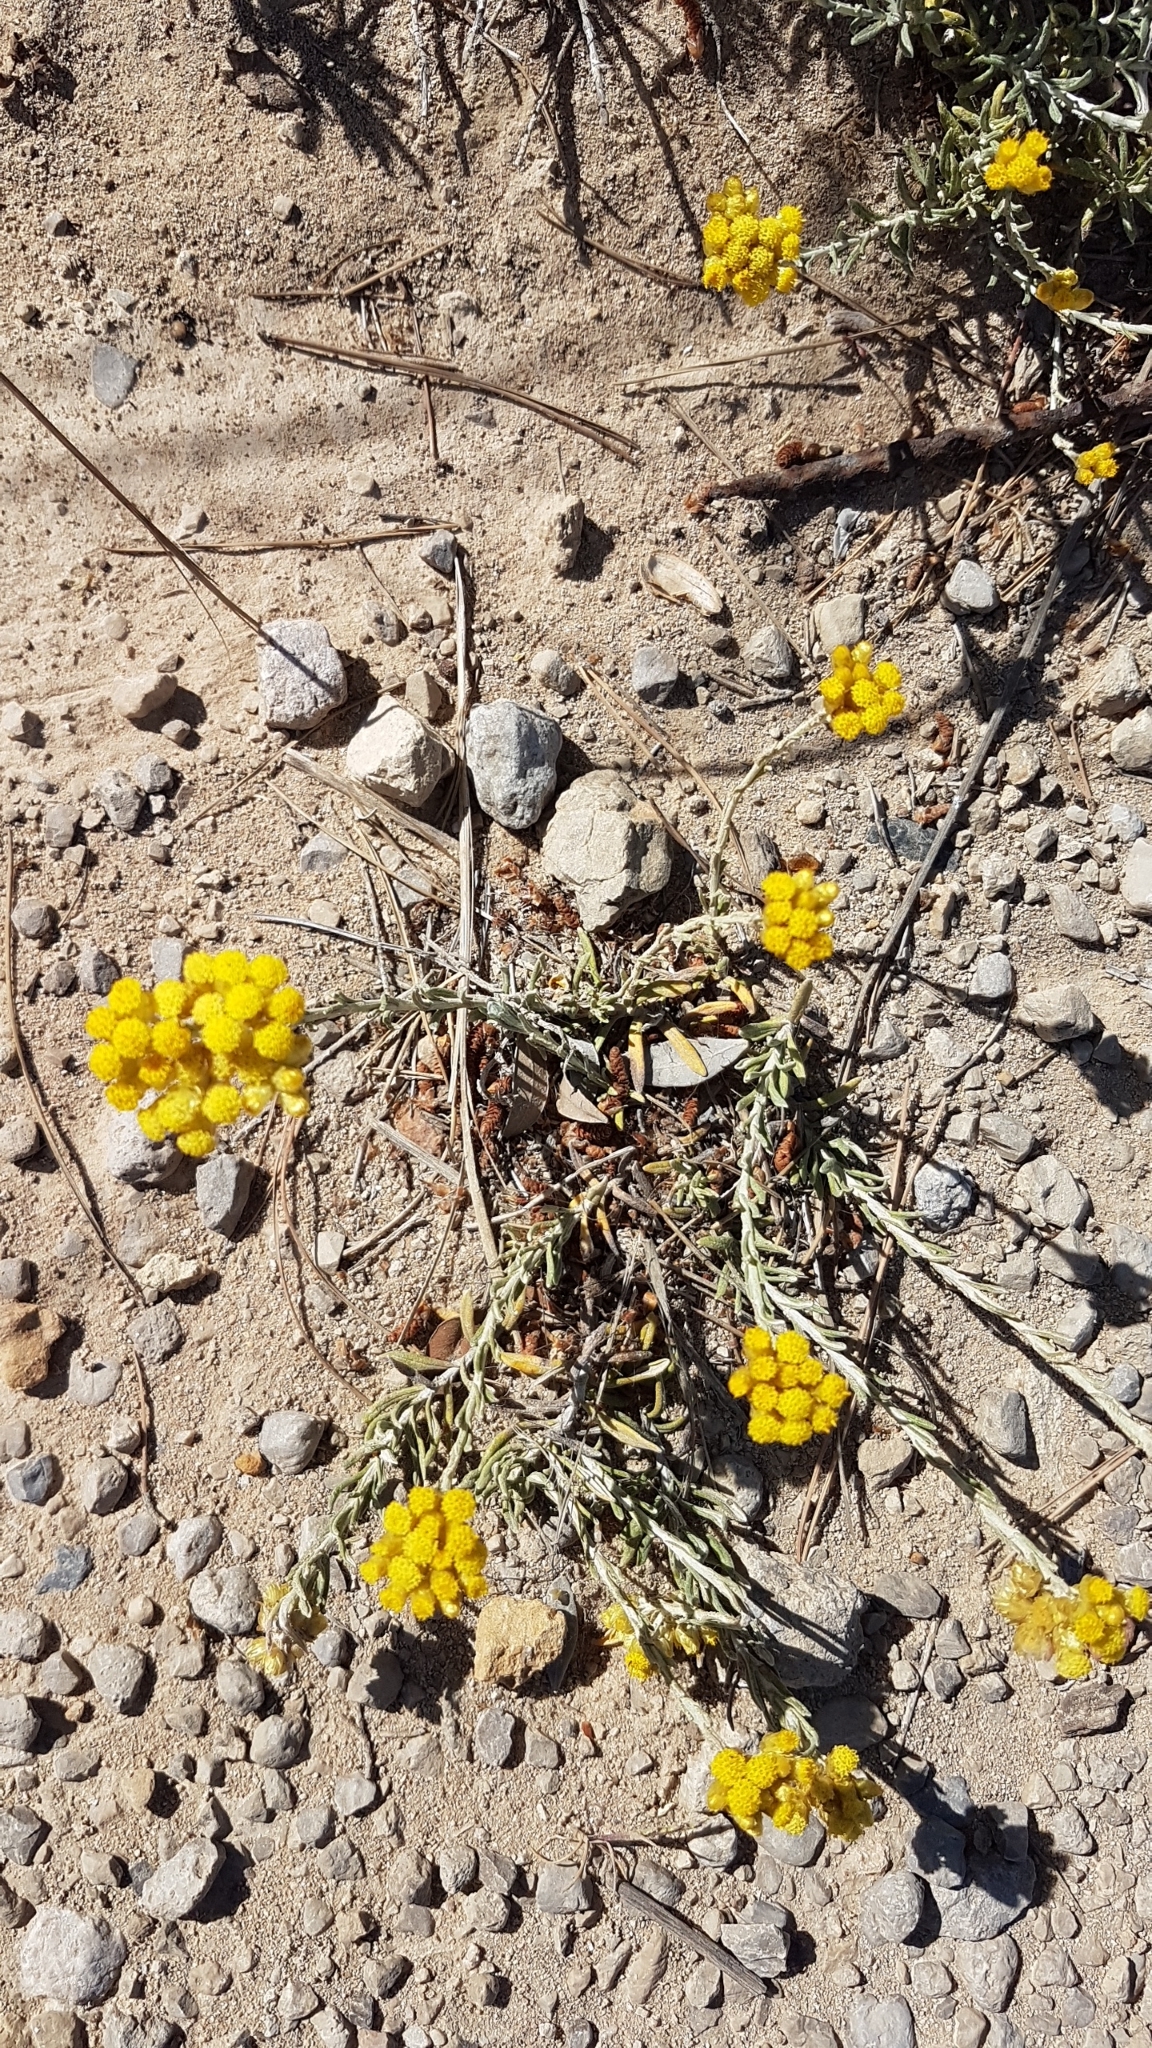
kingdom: Plantae
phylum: Tracheophyta
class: Magnoliopsida
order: Asterales
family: Asteraceae
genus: Helichrysum
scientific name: Helichrysum stoechas
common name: Goldilocks
